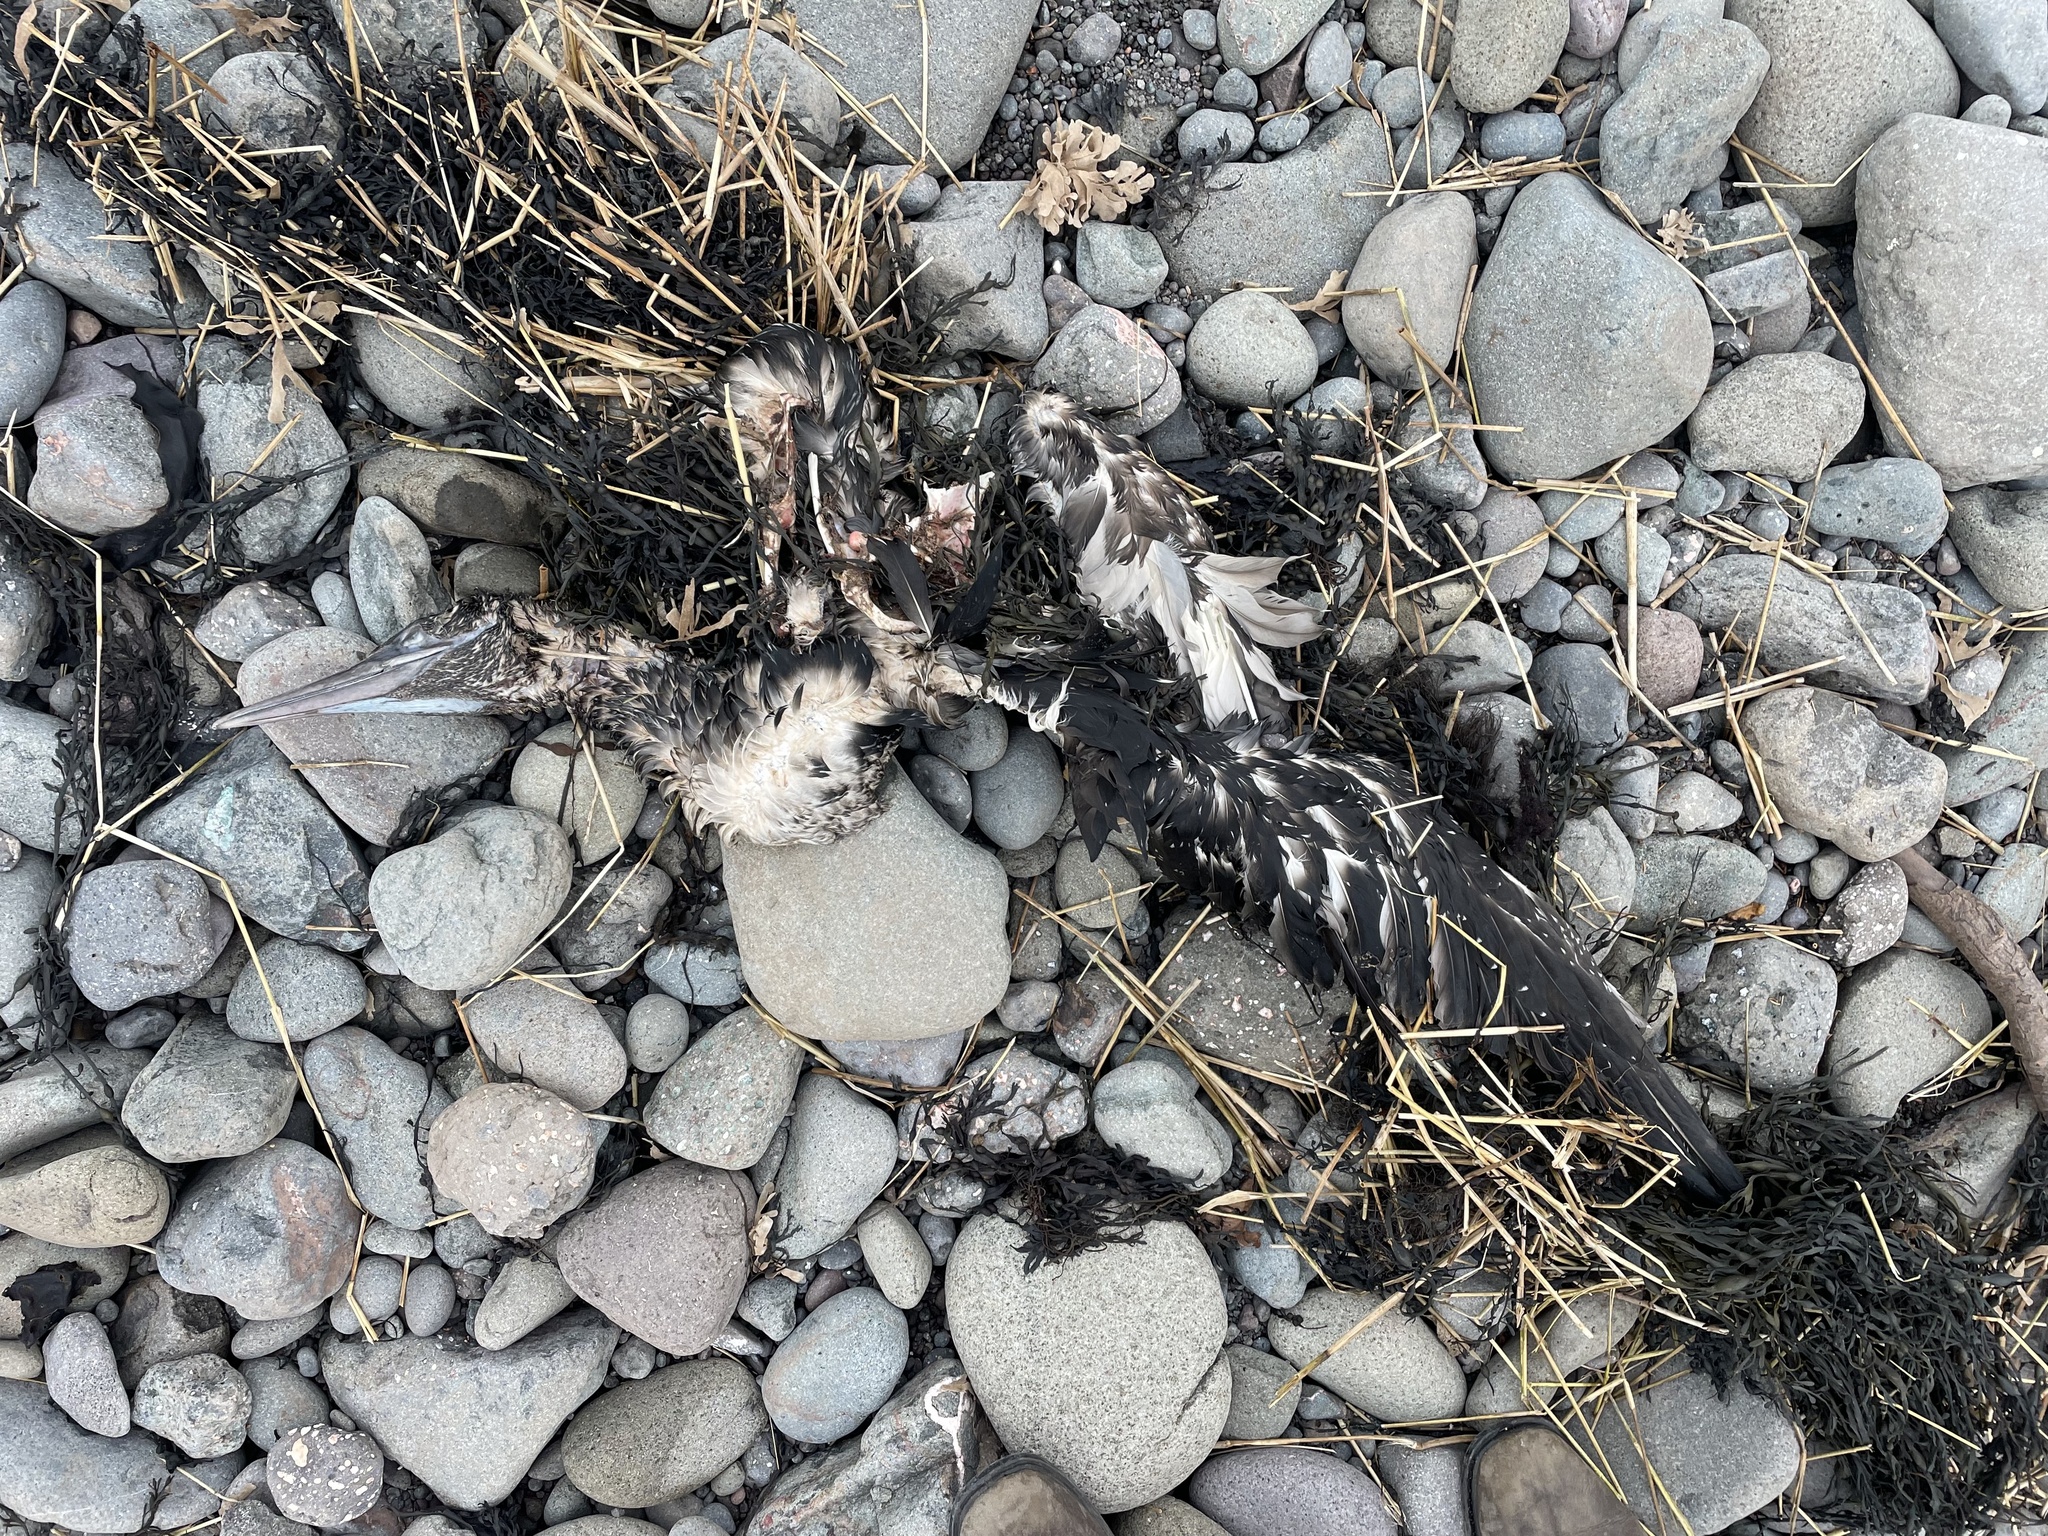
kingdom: Animalia
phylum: Chordata
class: Aves
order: Suliformes
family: Sulidae
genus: Morus
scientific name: Morus bassanus
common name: Northern gannet
